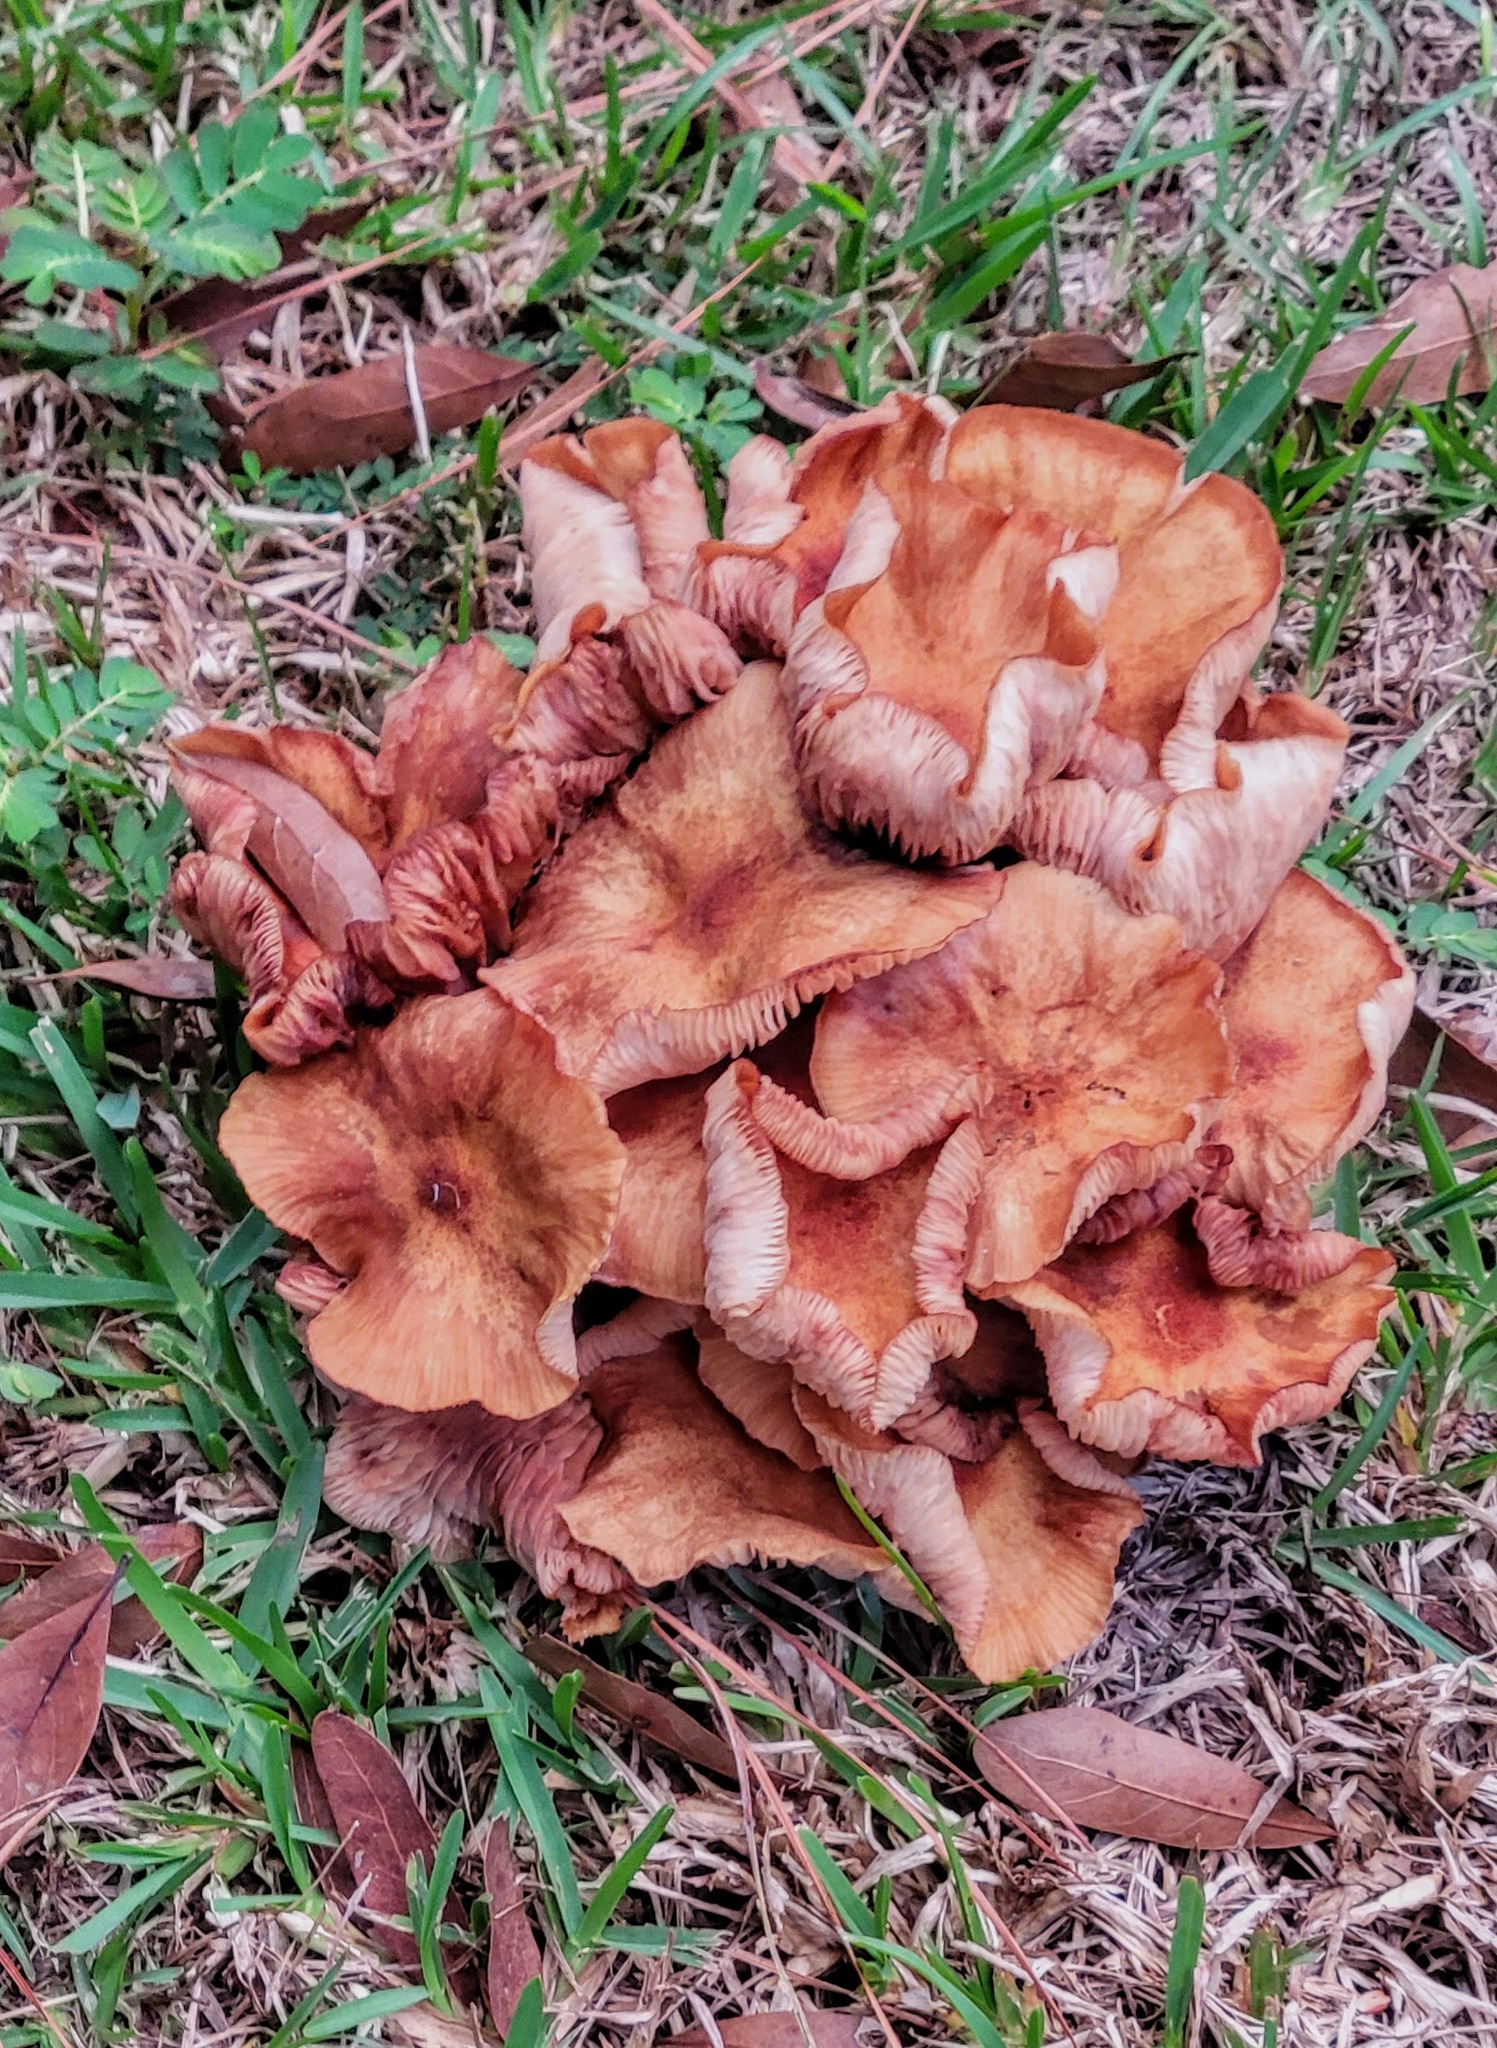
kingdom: Fungi
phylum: Basidiomycota
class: Agaricomycetes
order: Agaricales
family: Physalacriaceae
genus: Desarmillaria
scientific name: Desarmillaria caespitosa
